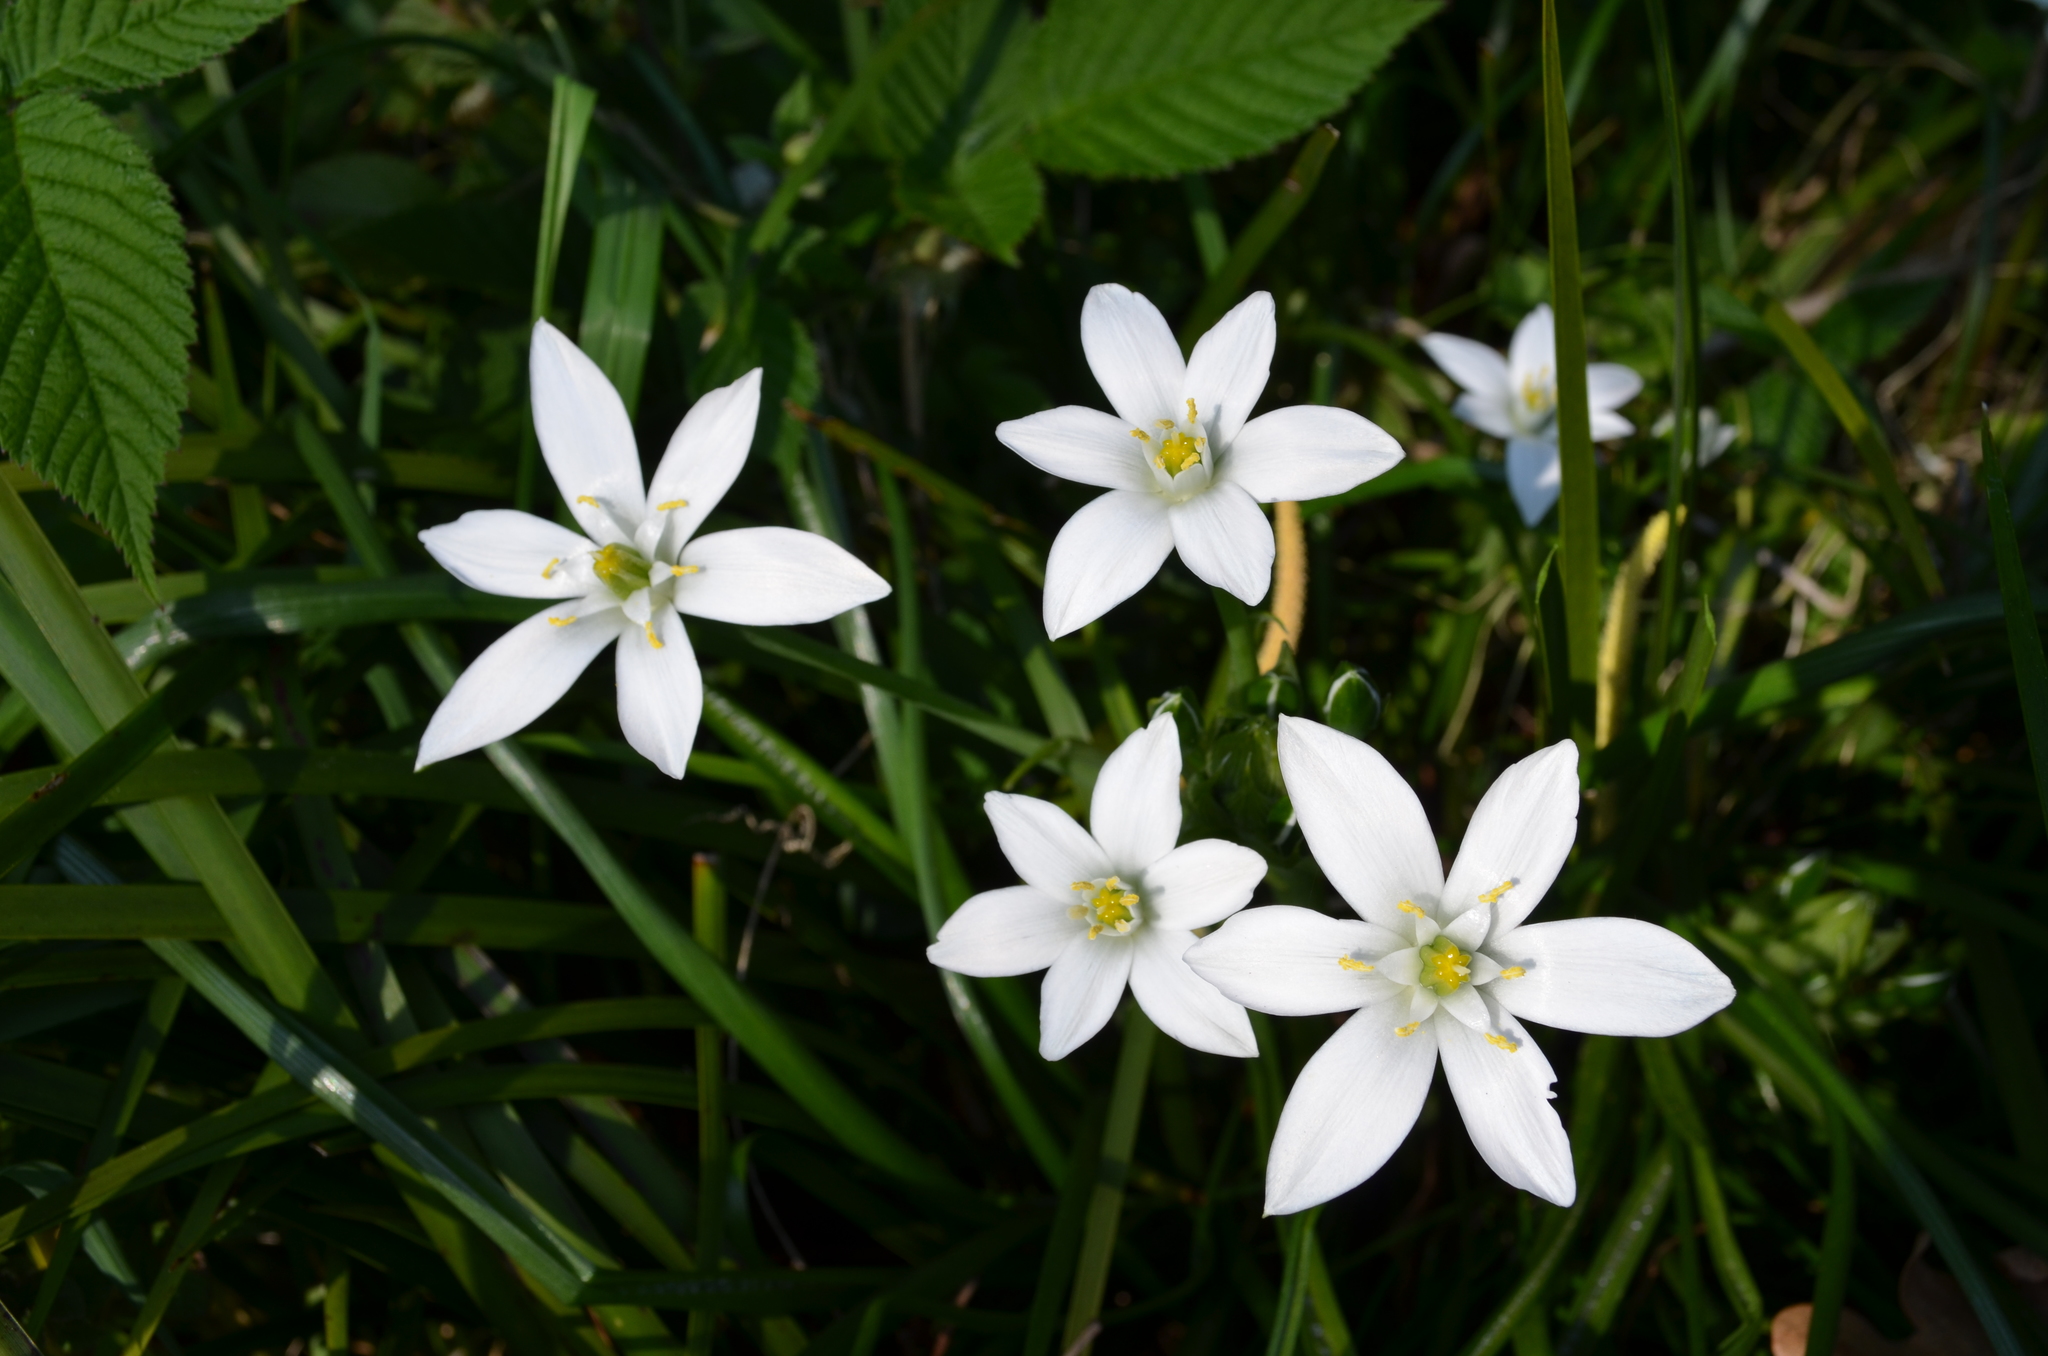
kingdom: Plantae
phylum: Tracheophyta
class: Liliopsida
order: Asparagales
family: Asparagaceae
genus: Ornithogalum
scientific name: Ornithogalum umbellatum
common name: Garden star-of-bethlehem
